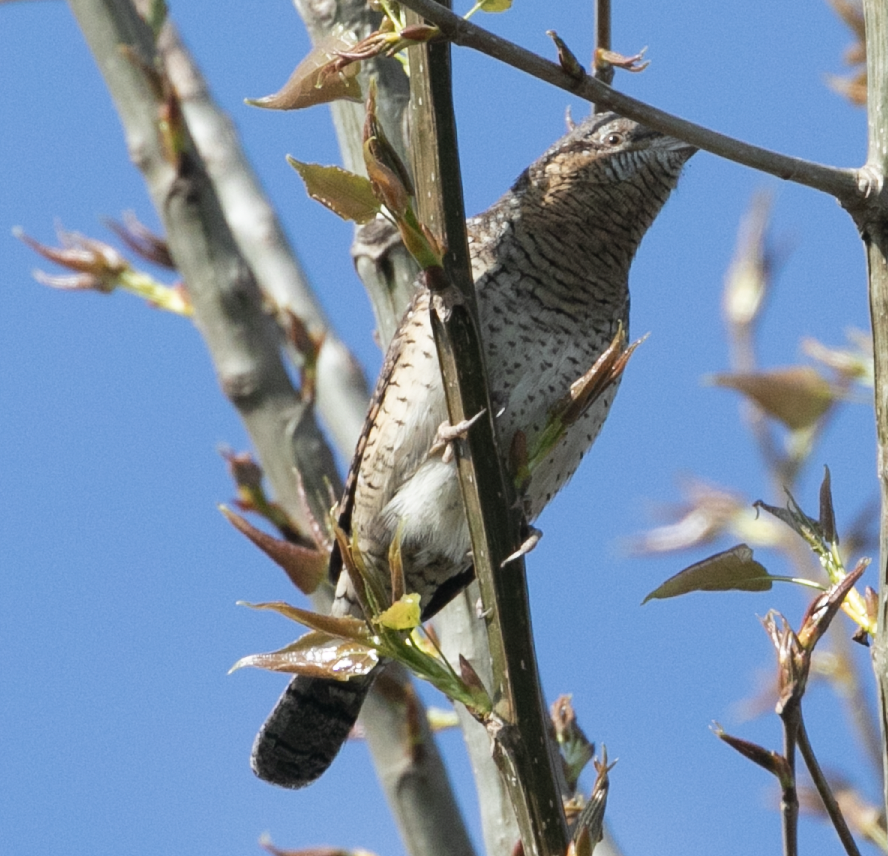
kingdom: Animalia
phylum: Chordata
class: Aves
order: Piciformes
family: Picidae
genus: Jynx
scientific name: Jynx torquilla
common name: Eurasian wryneck
